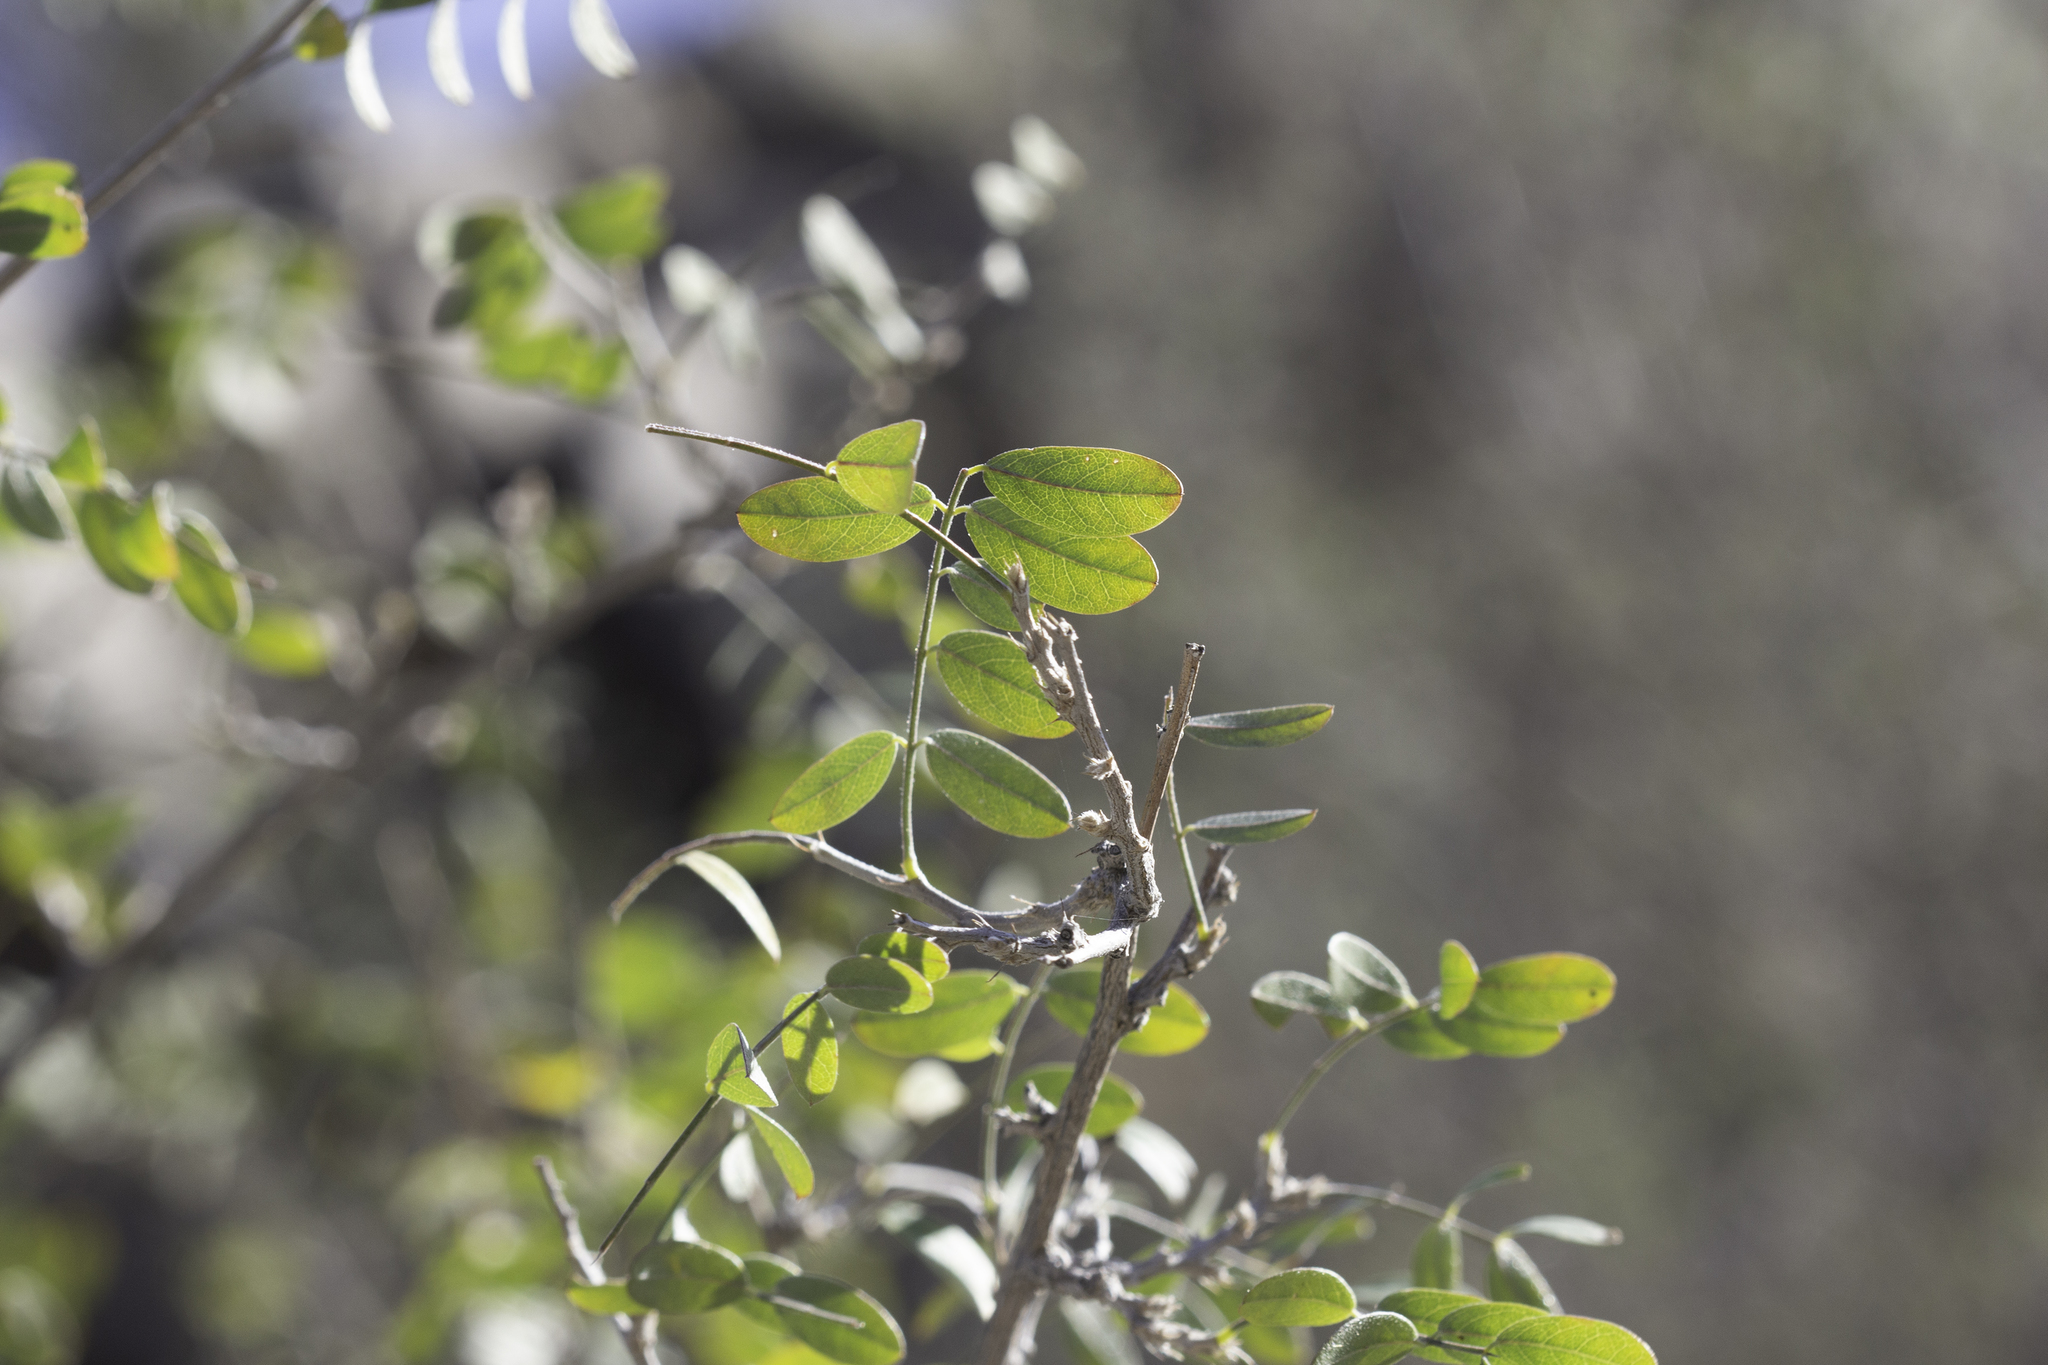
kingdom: Plantae
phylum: Tracheophyta
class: Magnoliopsida
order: Fabales
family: Fabaceae
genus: Coursetia
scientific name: Coursetia glandulosa
